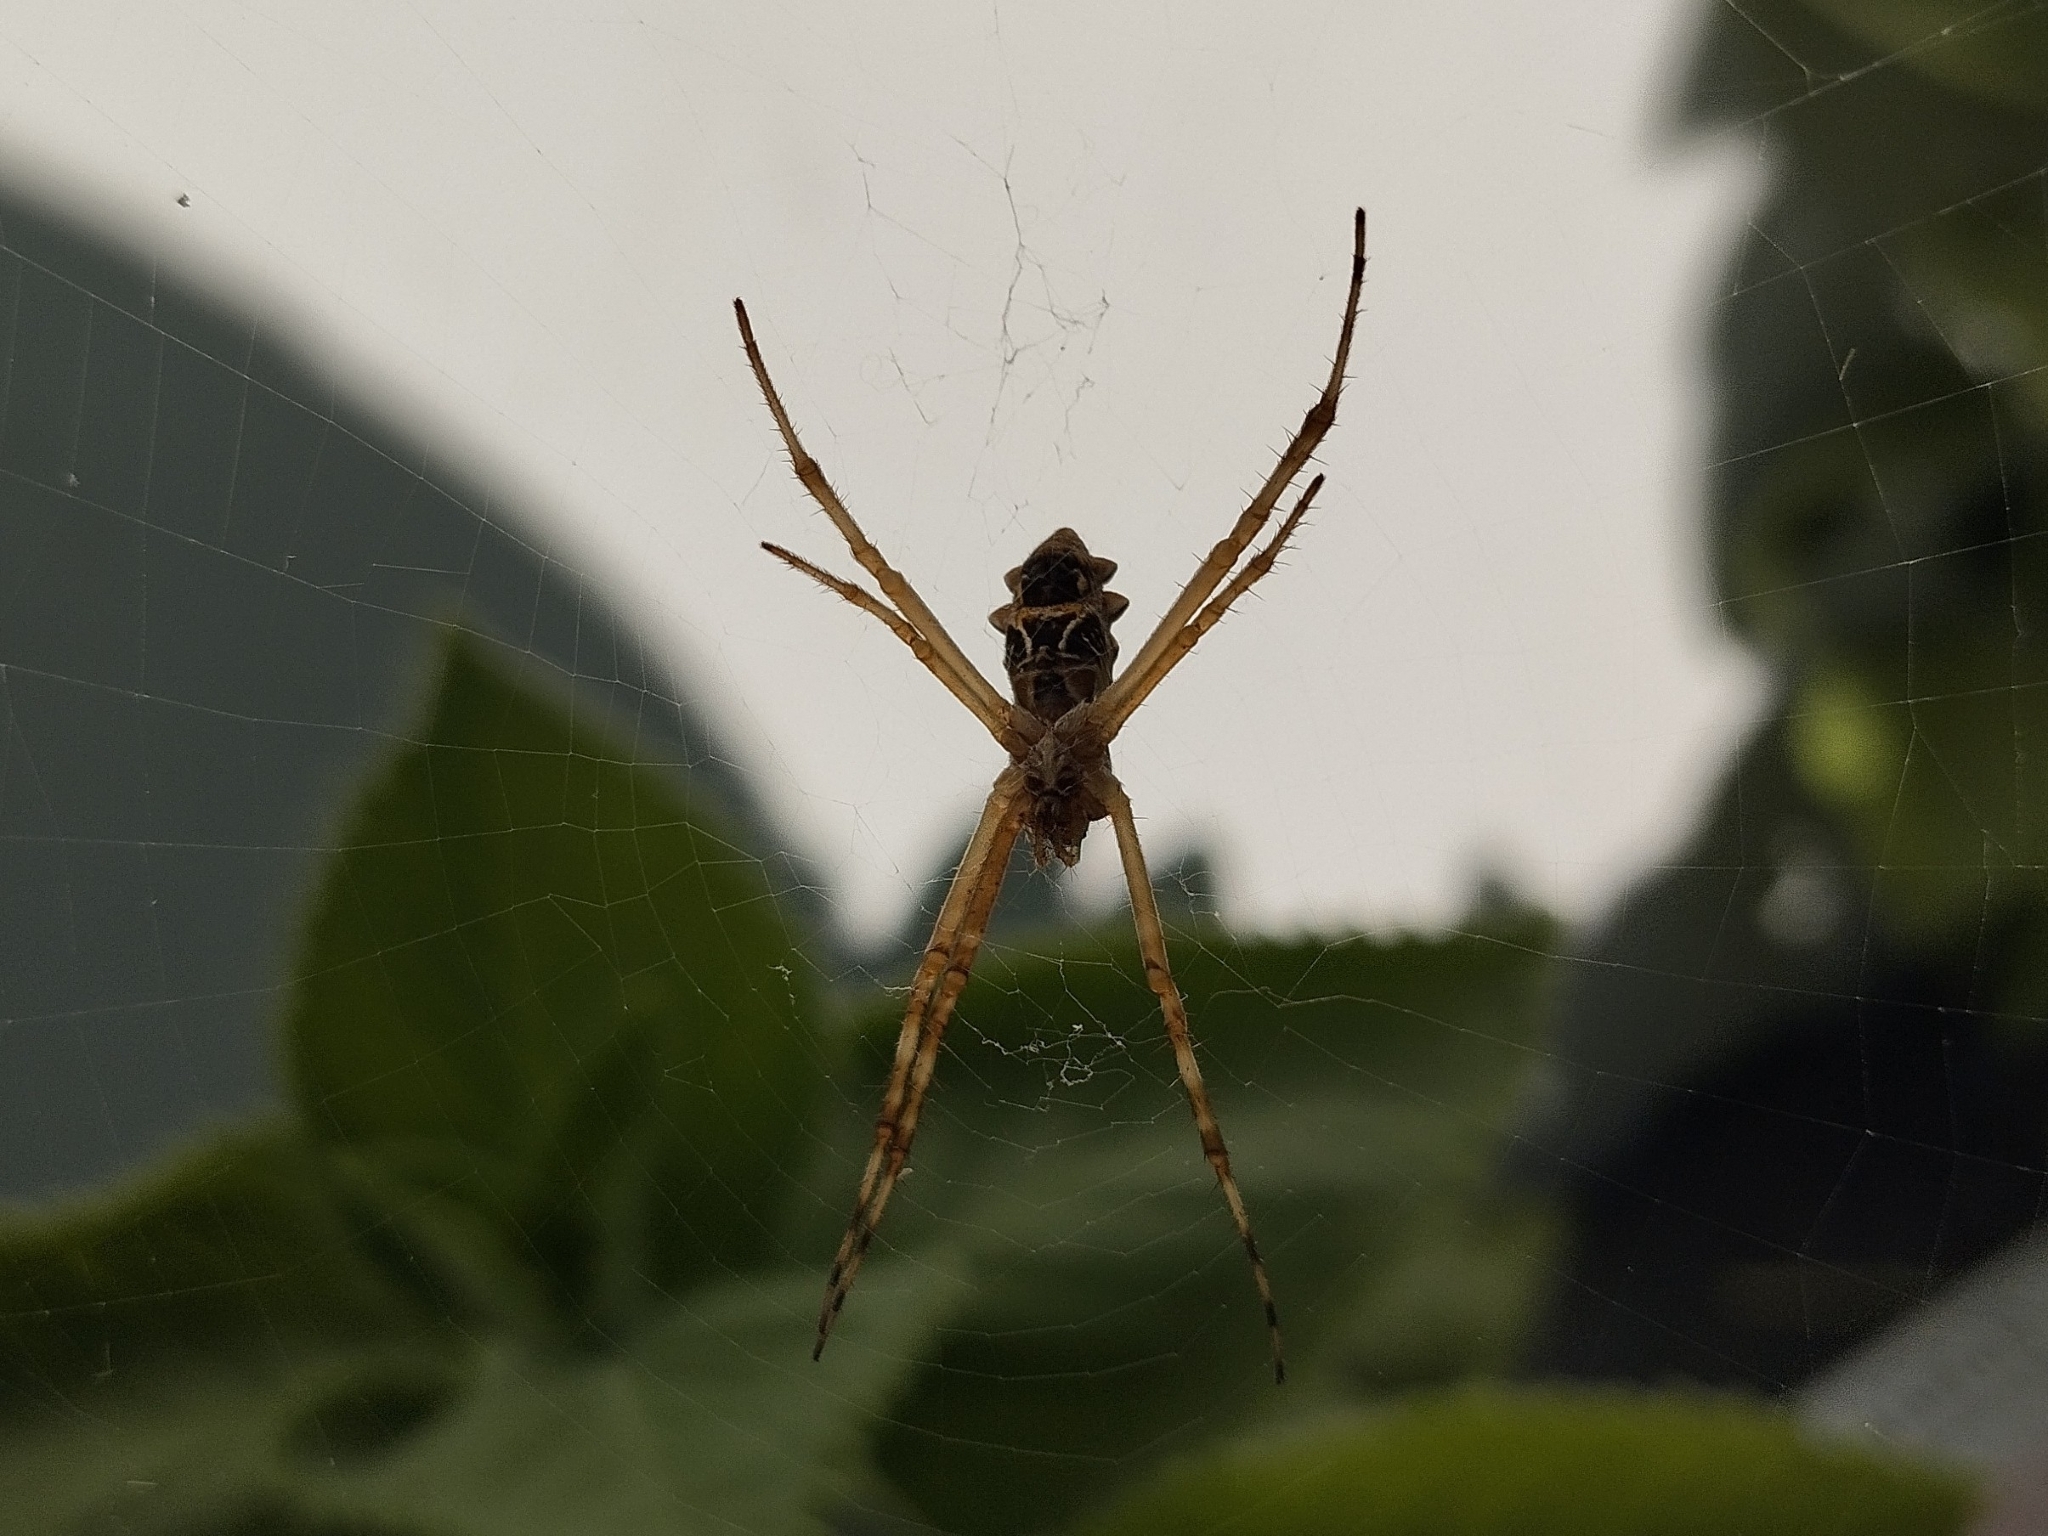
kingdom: Animalia
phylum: Arthropoda
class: Arachnida
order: Araneae
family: Araneidae
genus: Argiope
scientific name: Argiope argentata
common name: Orb weavers
